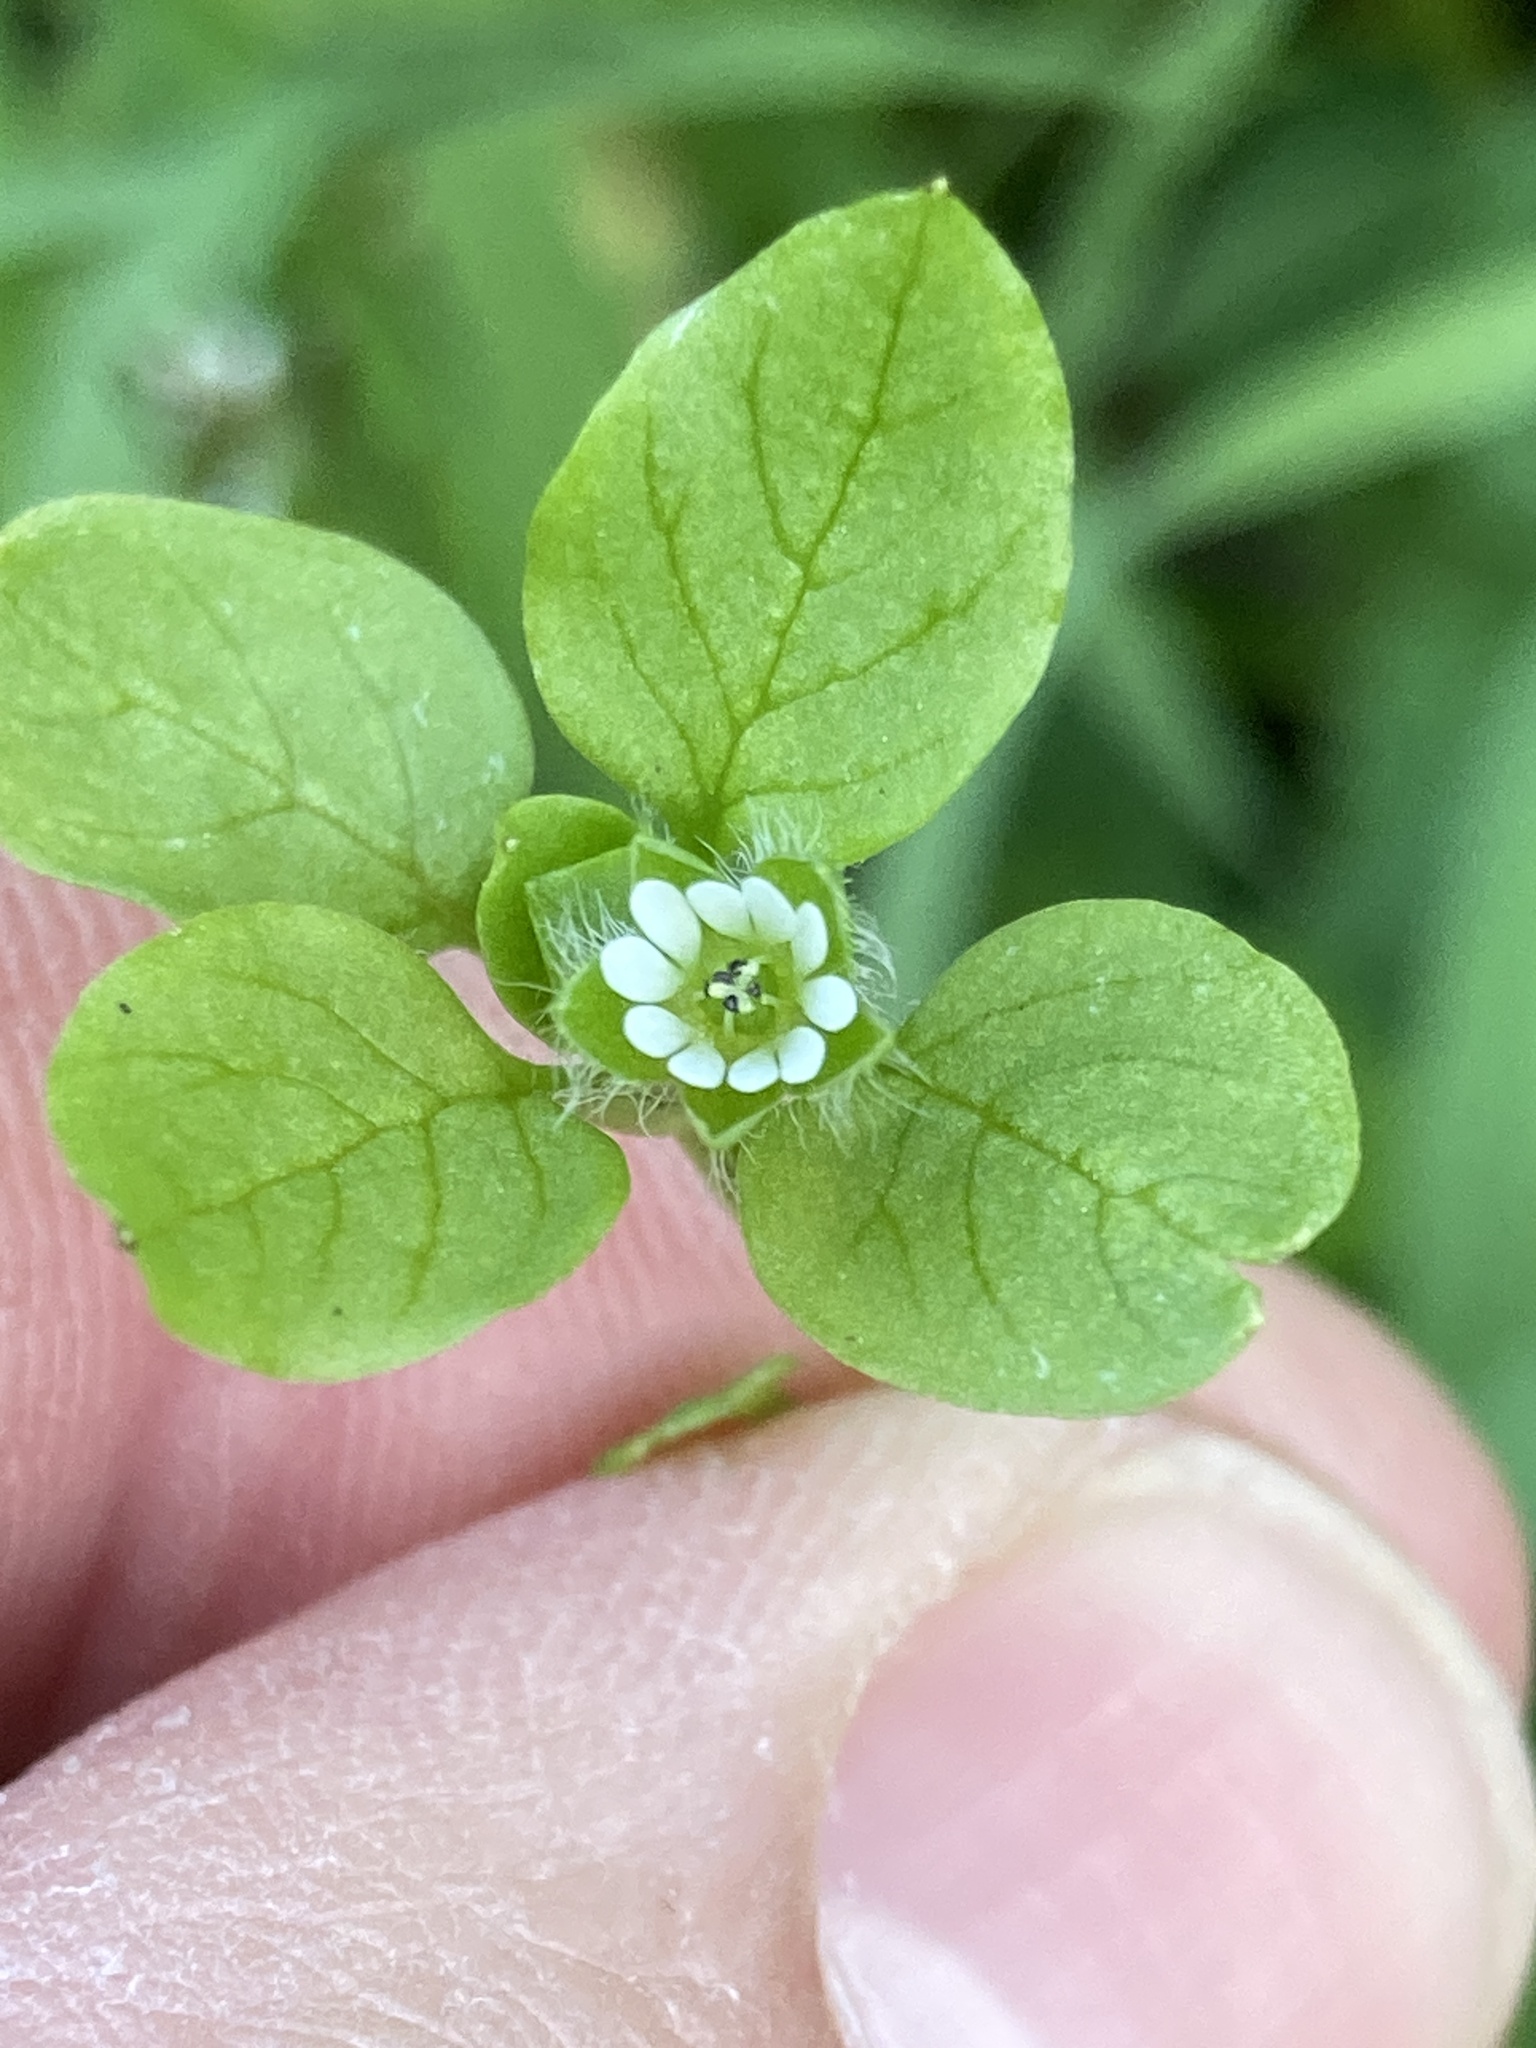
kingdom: Plantae
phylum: Tracheophyta
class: Magnoliopsida
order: Caryophyllales
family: Caryophyllaceae
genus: Stellaria
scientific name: Stellaria media
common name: Common chickweed
